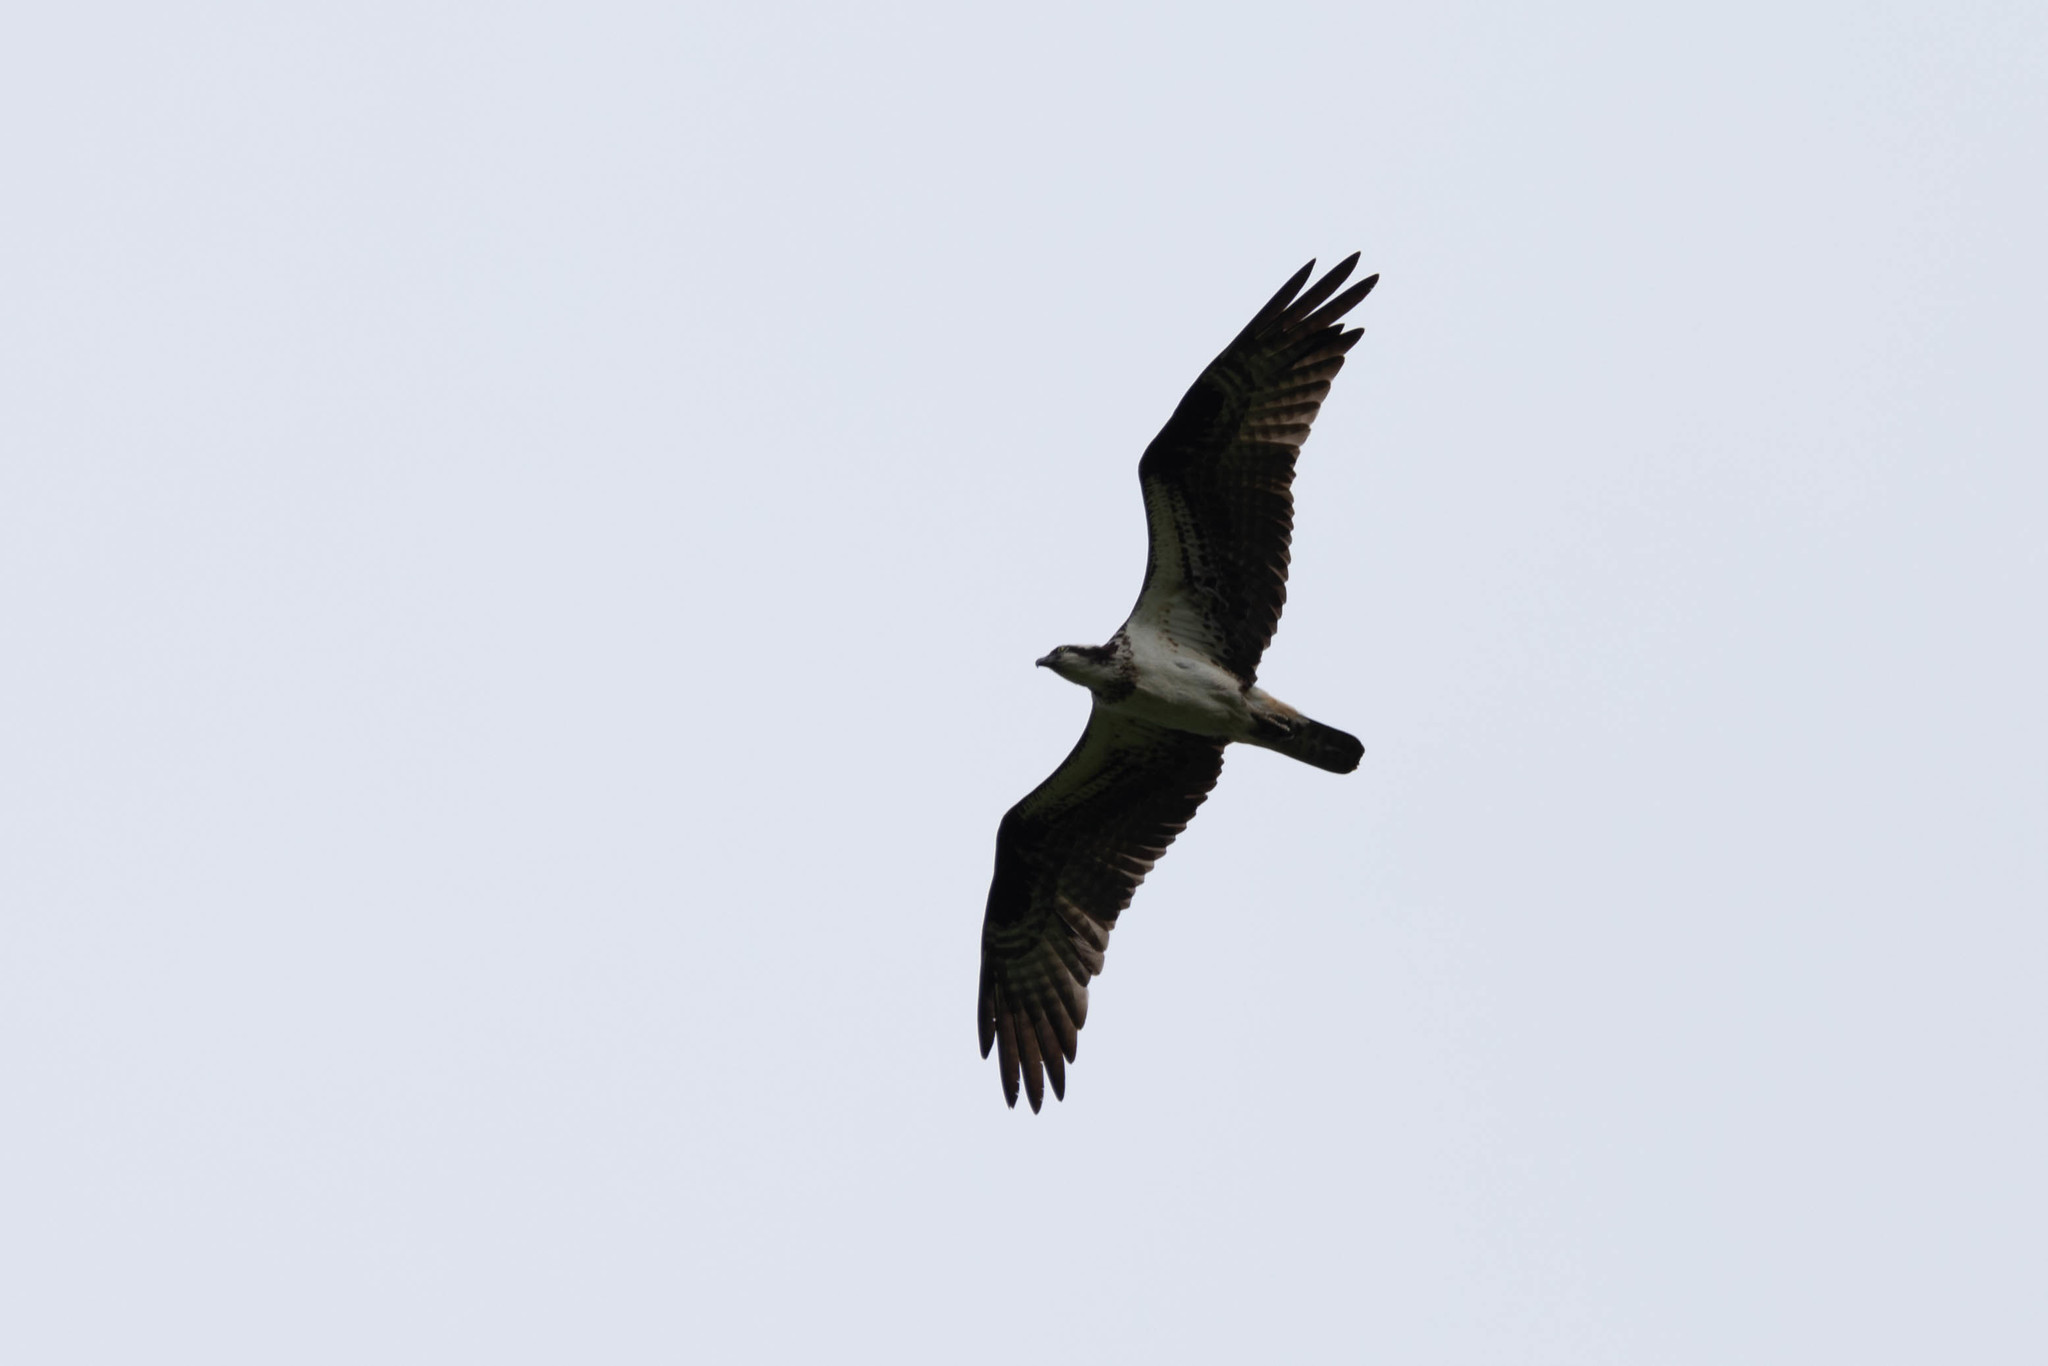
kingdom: Animalia
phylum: Chordata
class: Aves
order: Accipitriformes
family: Pandionidae
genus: Pandion
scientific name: Pandion haliaetus
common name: Osprey
